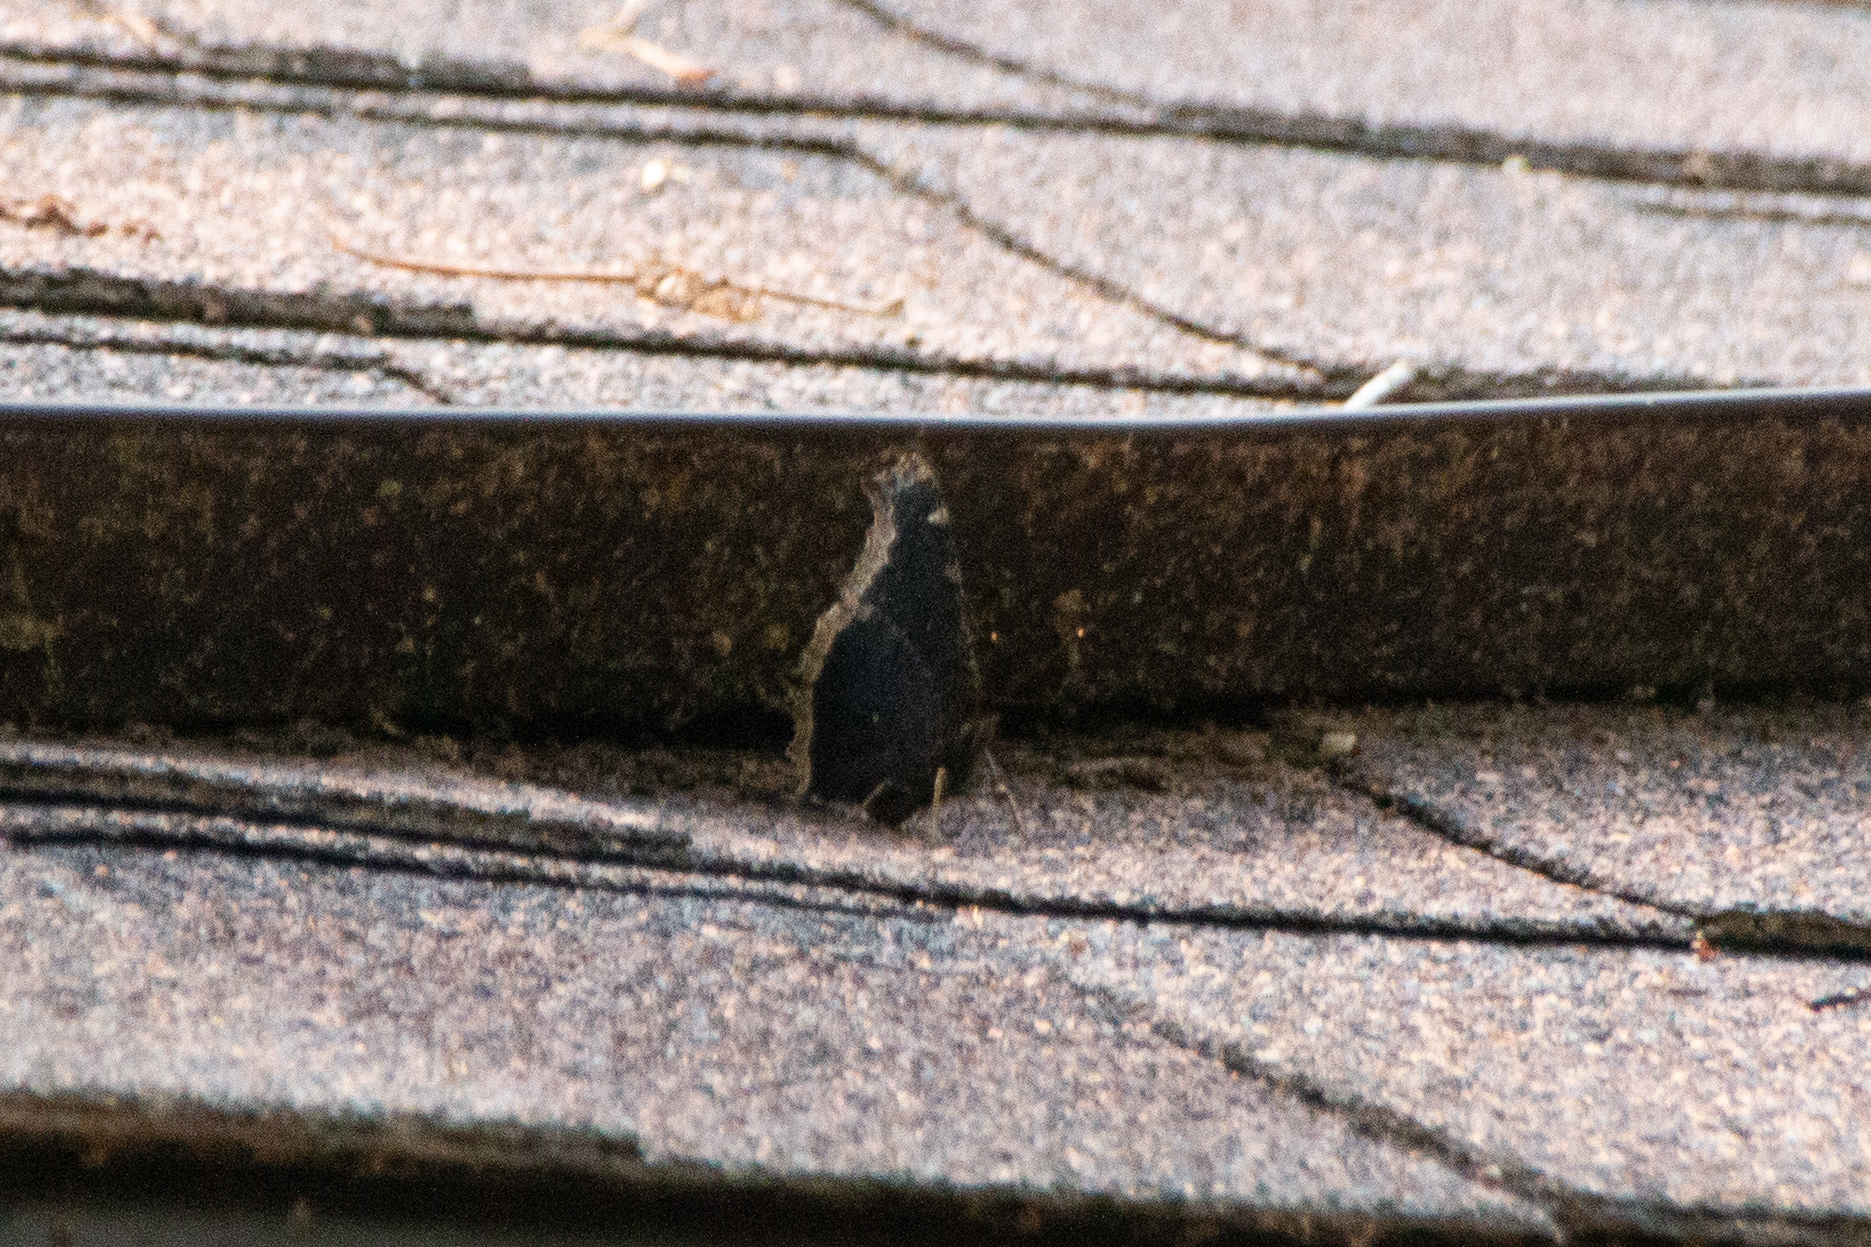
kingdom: Animalia
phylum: Arthropoda
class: Insecta
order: Lepidoptera
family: Nymphalidae
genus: Nymphalis
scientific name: Nymphalis antiopa
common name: Camberwell beauty
